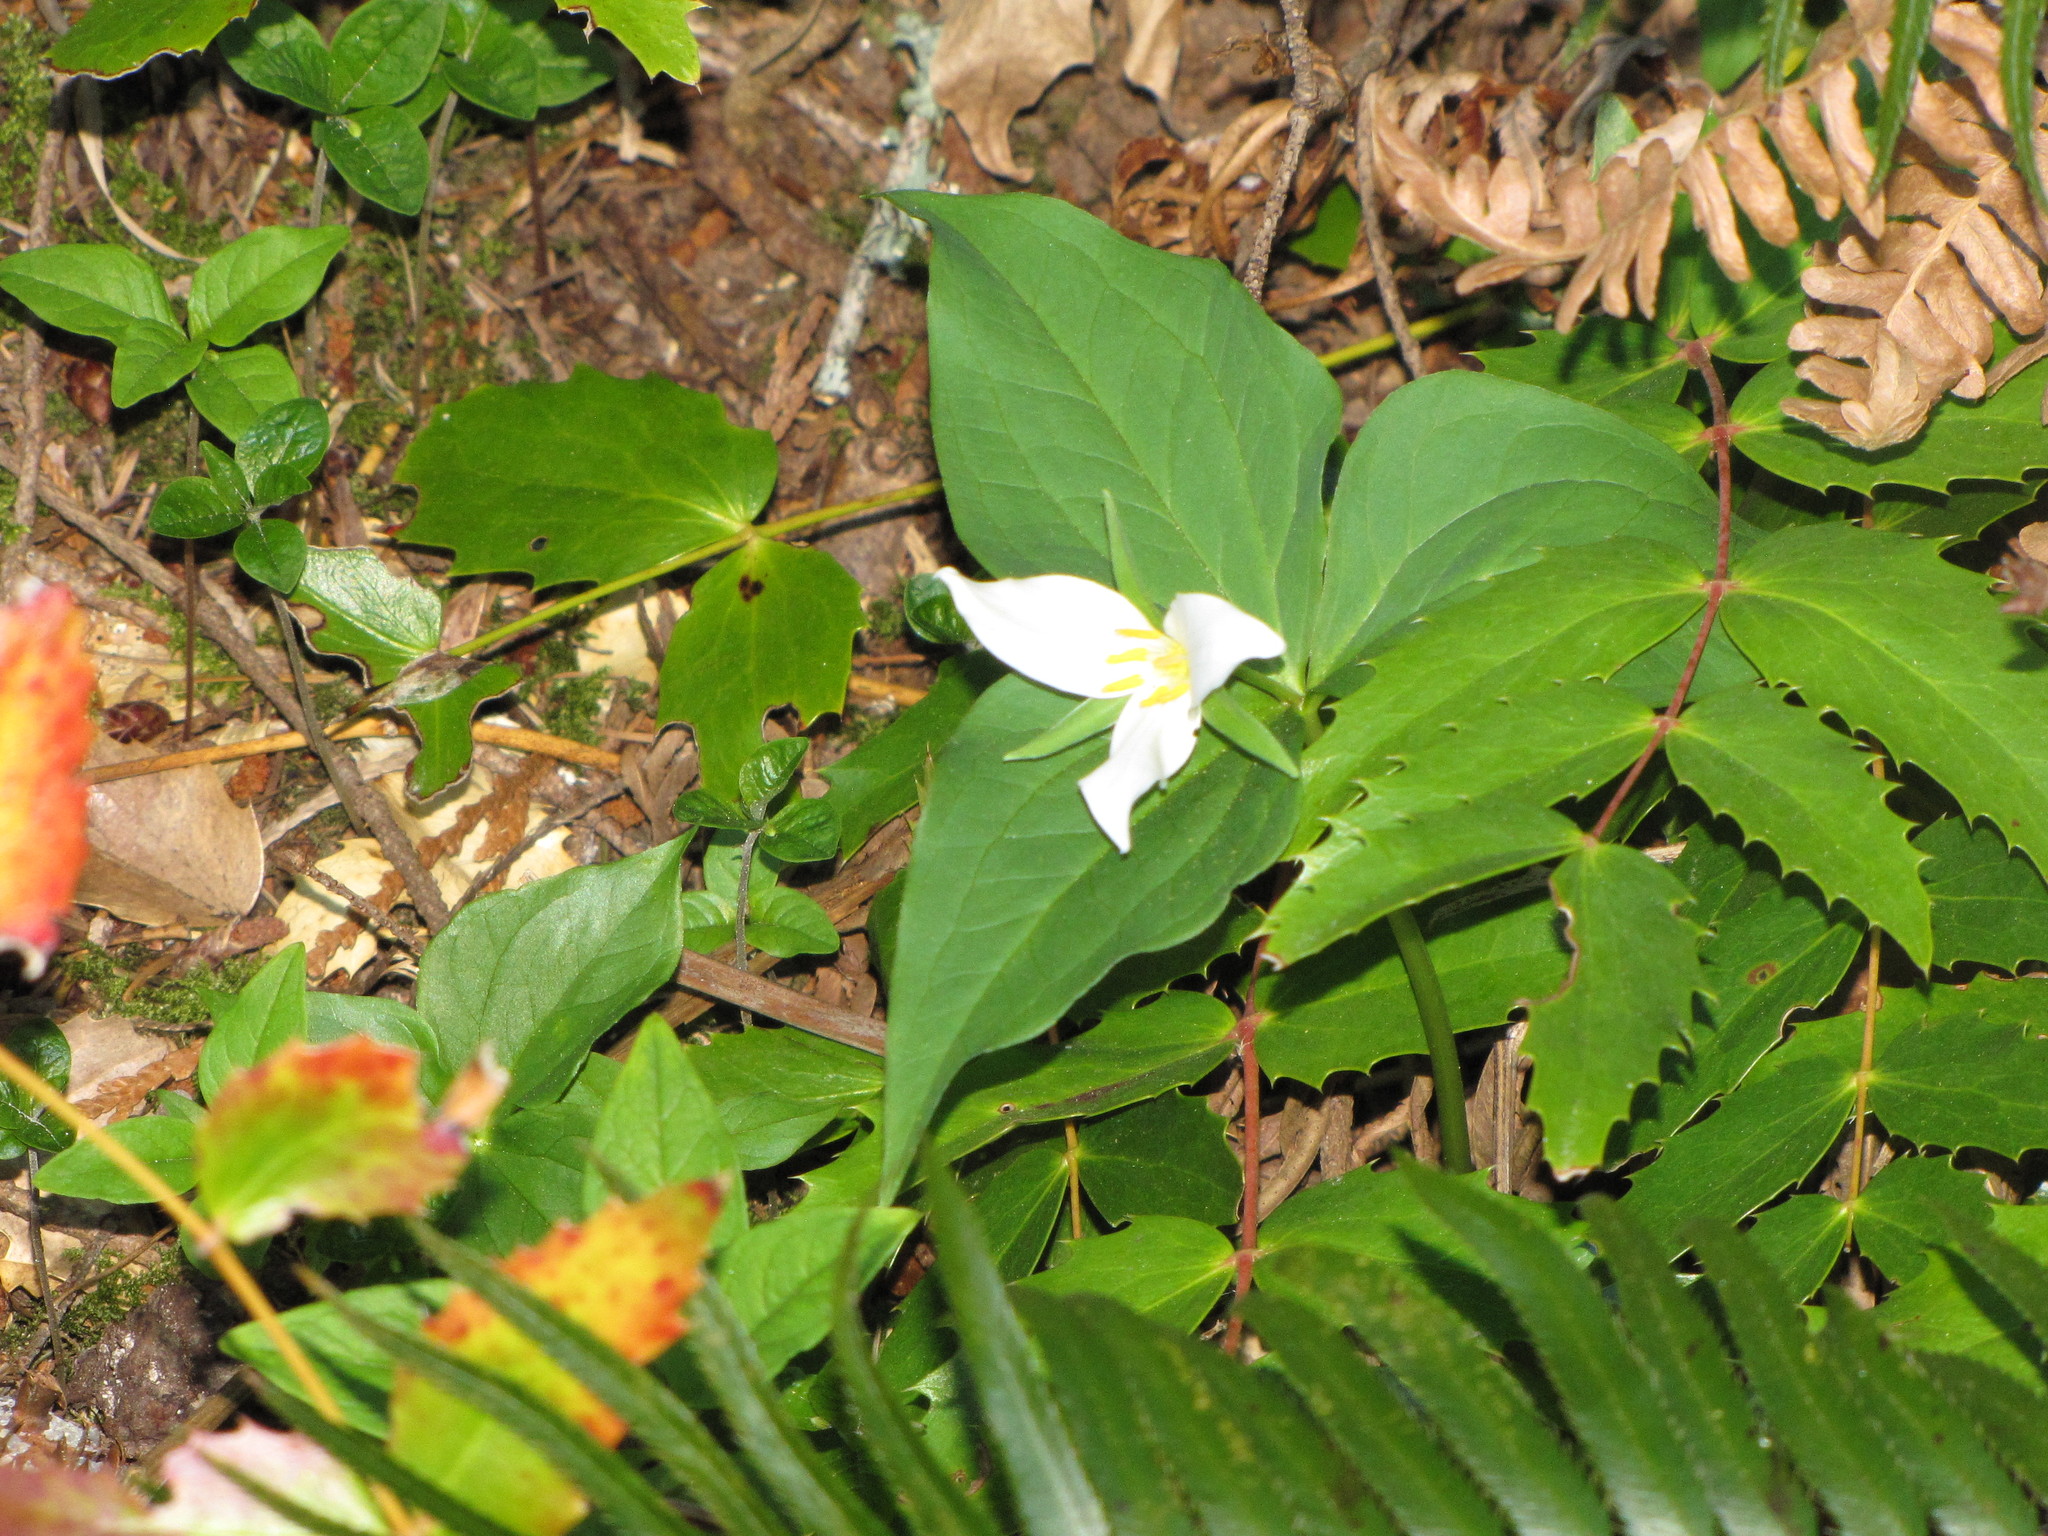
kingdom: Plantae
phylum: Tracheophyta
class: Liliopsida
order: Liliales
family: Melanthiaceae
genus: Trillium
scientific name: Trillium ovatum
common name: Pacific trillium
